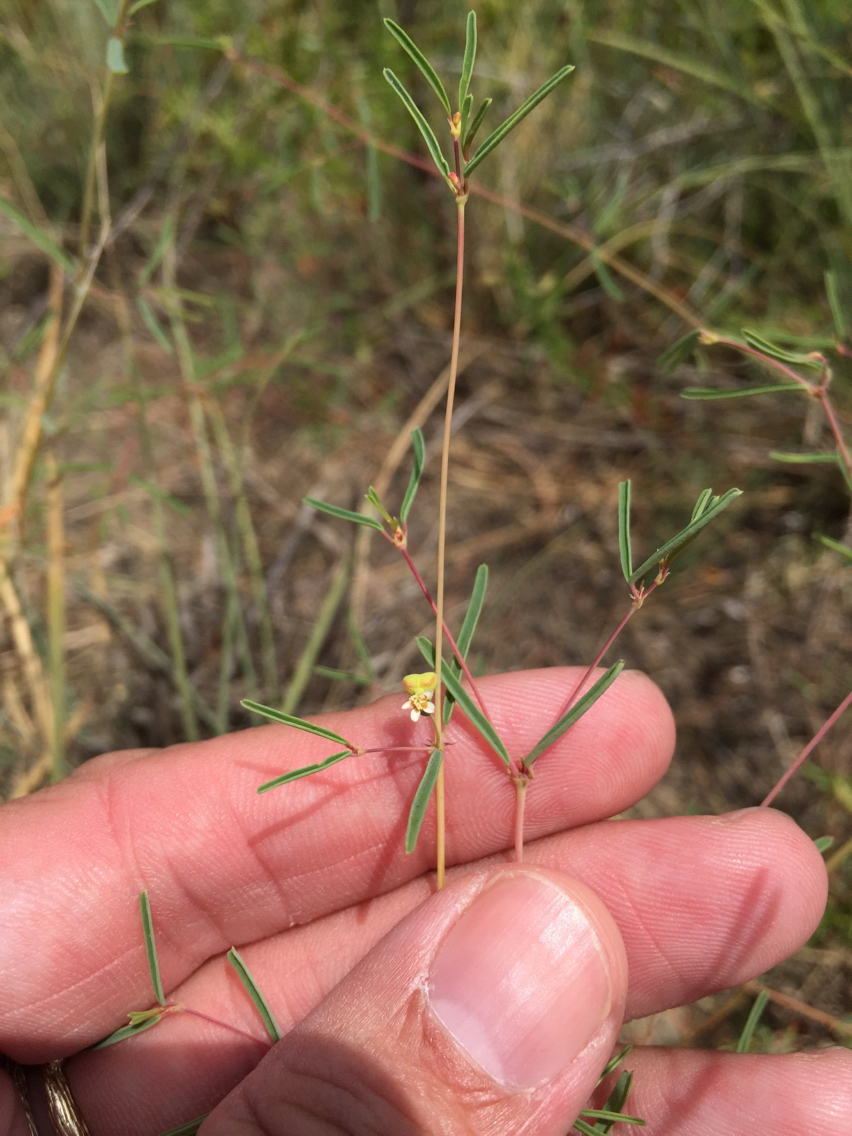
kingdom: Plantae
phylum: Tracheophyta
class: Magnoliopsida
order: Malpighiales
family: Euphorbiaceae
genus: Euphorbia
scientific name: Euphorbia missurica
